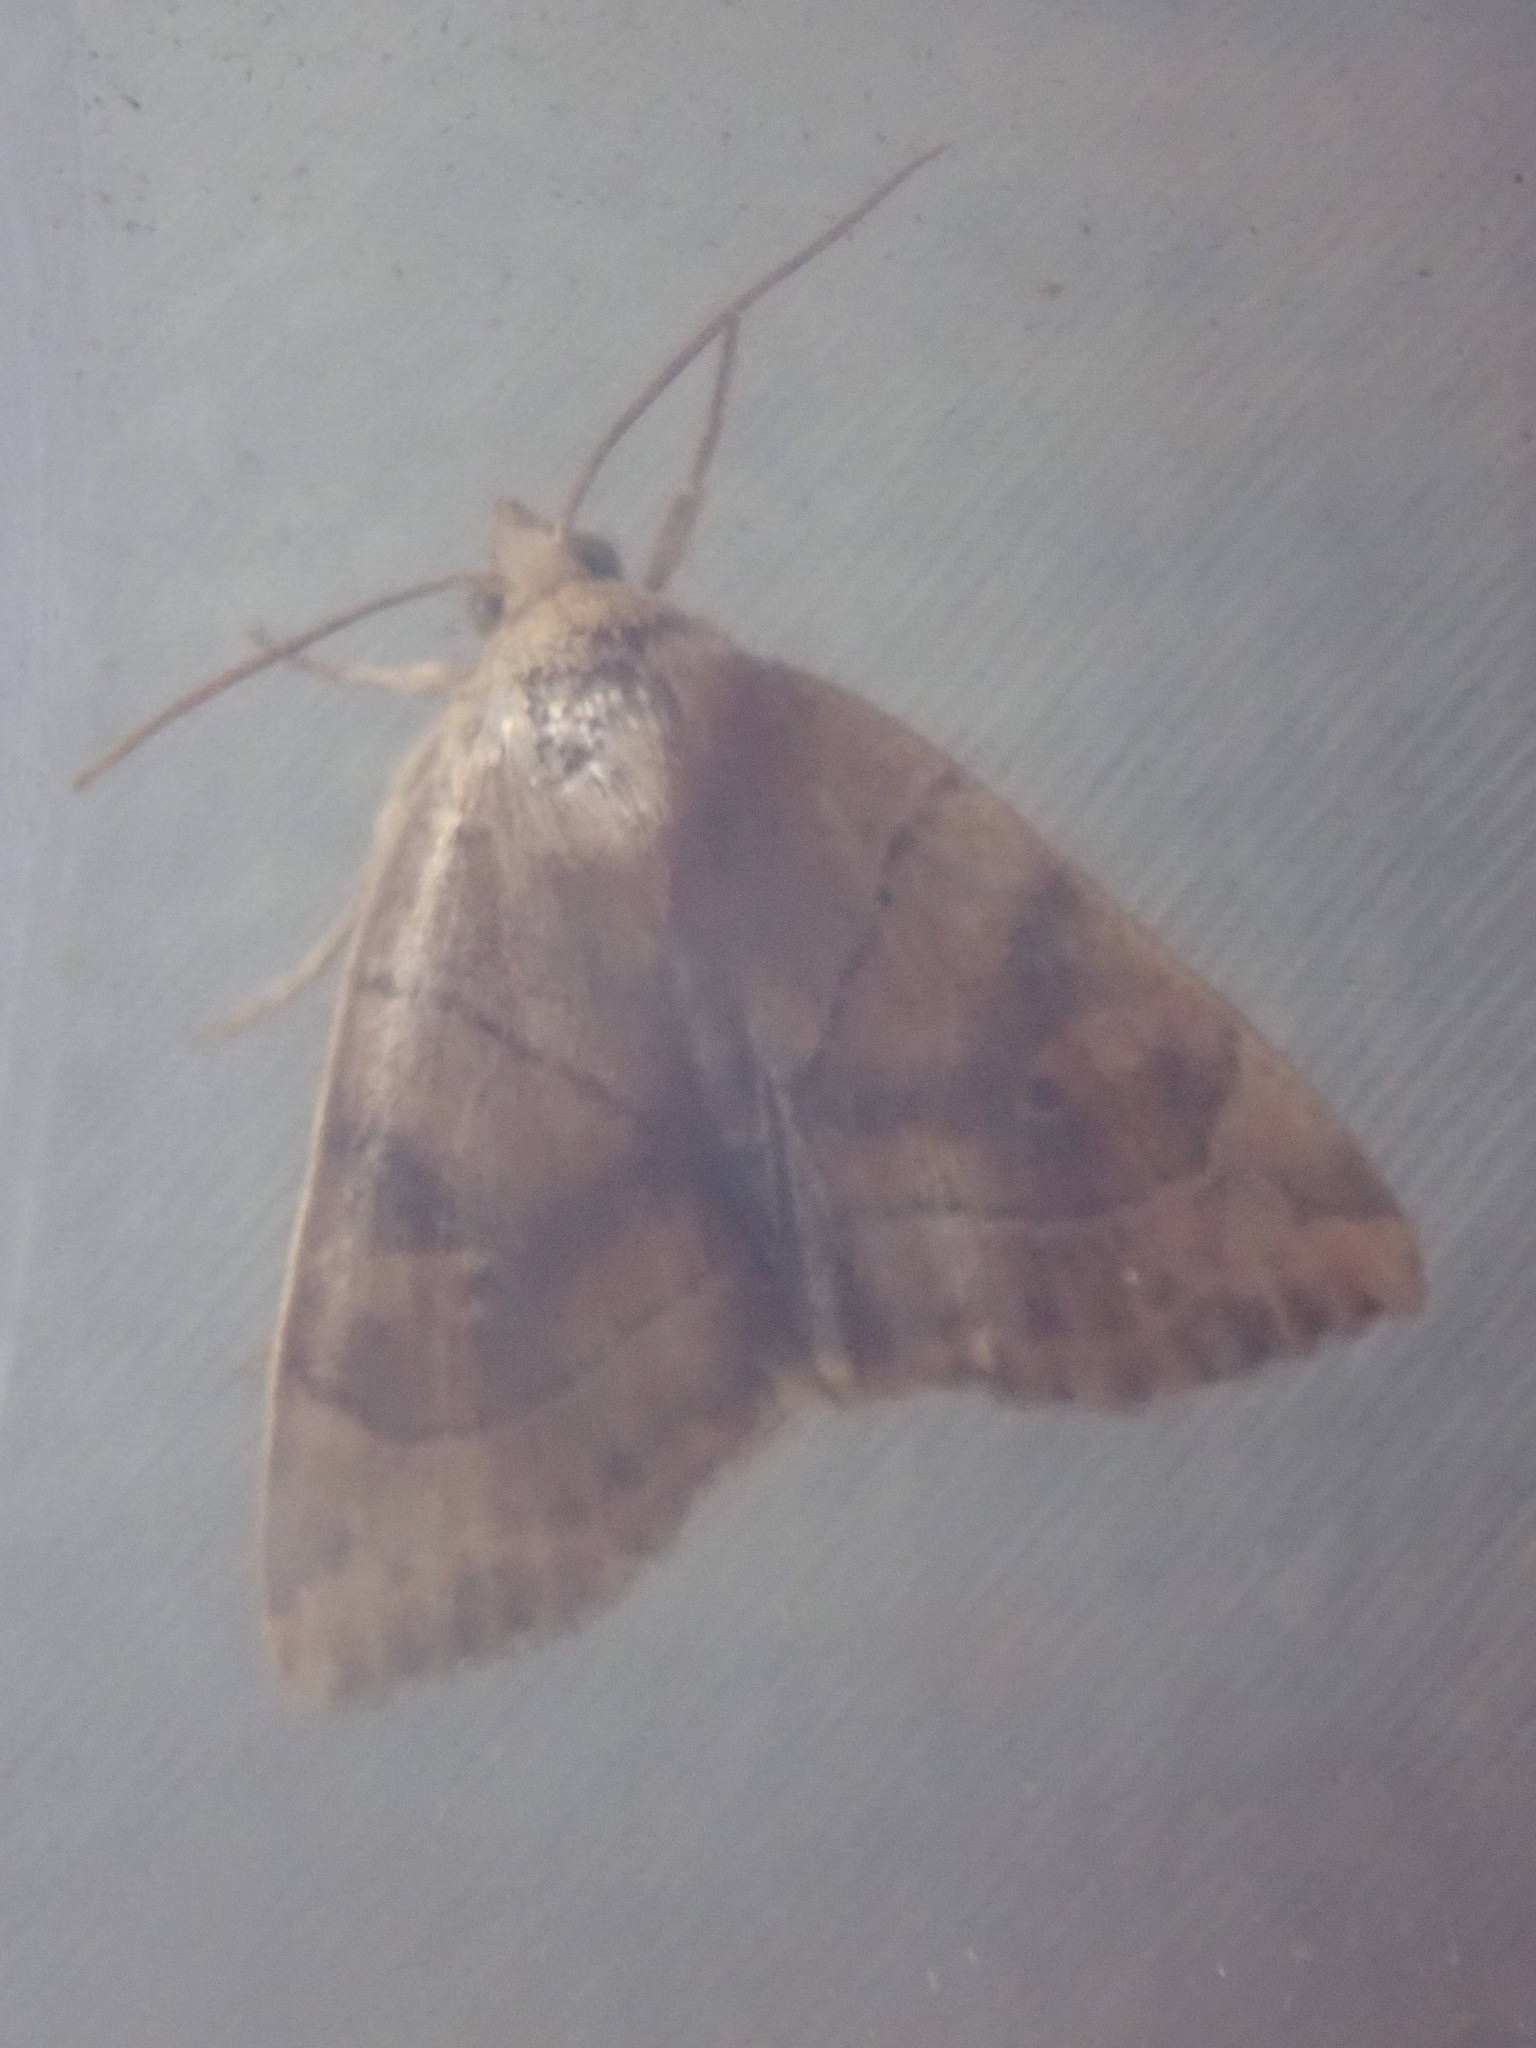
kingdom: Animalia
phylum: Arthropoda
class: Insecta
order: Lepidoptera
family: Noctuidae
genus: Cosmia
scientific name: Cosmia trapezina
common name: Dun-bar
